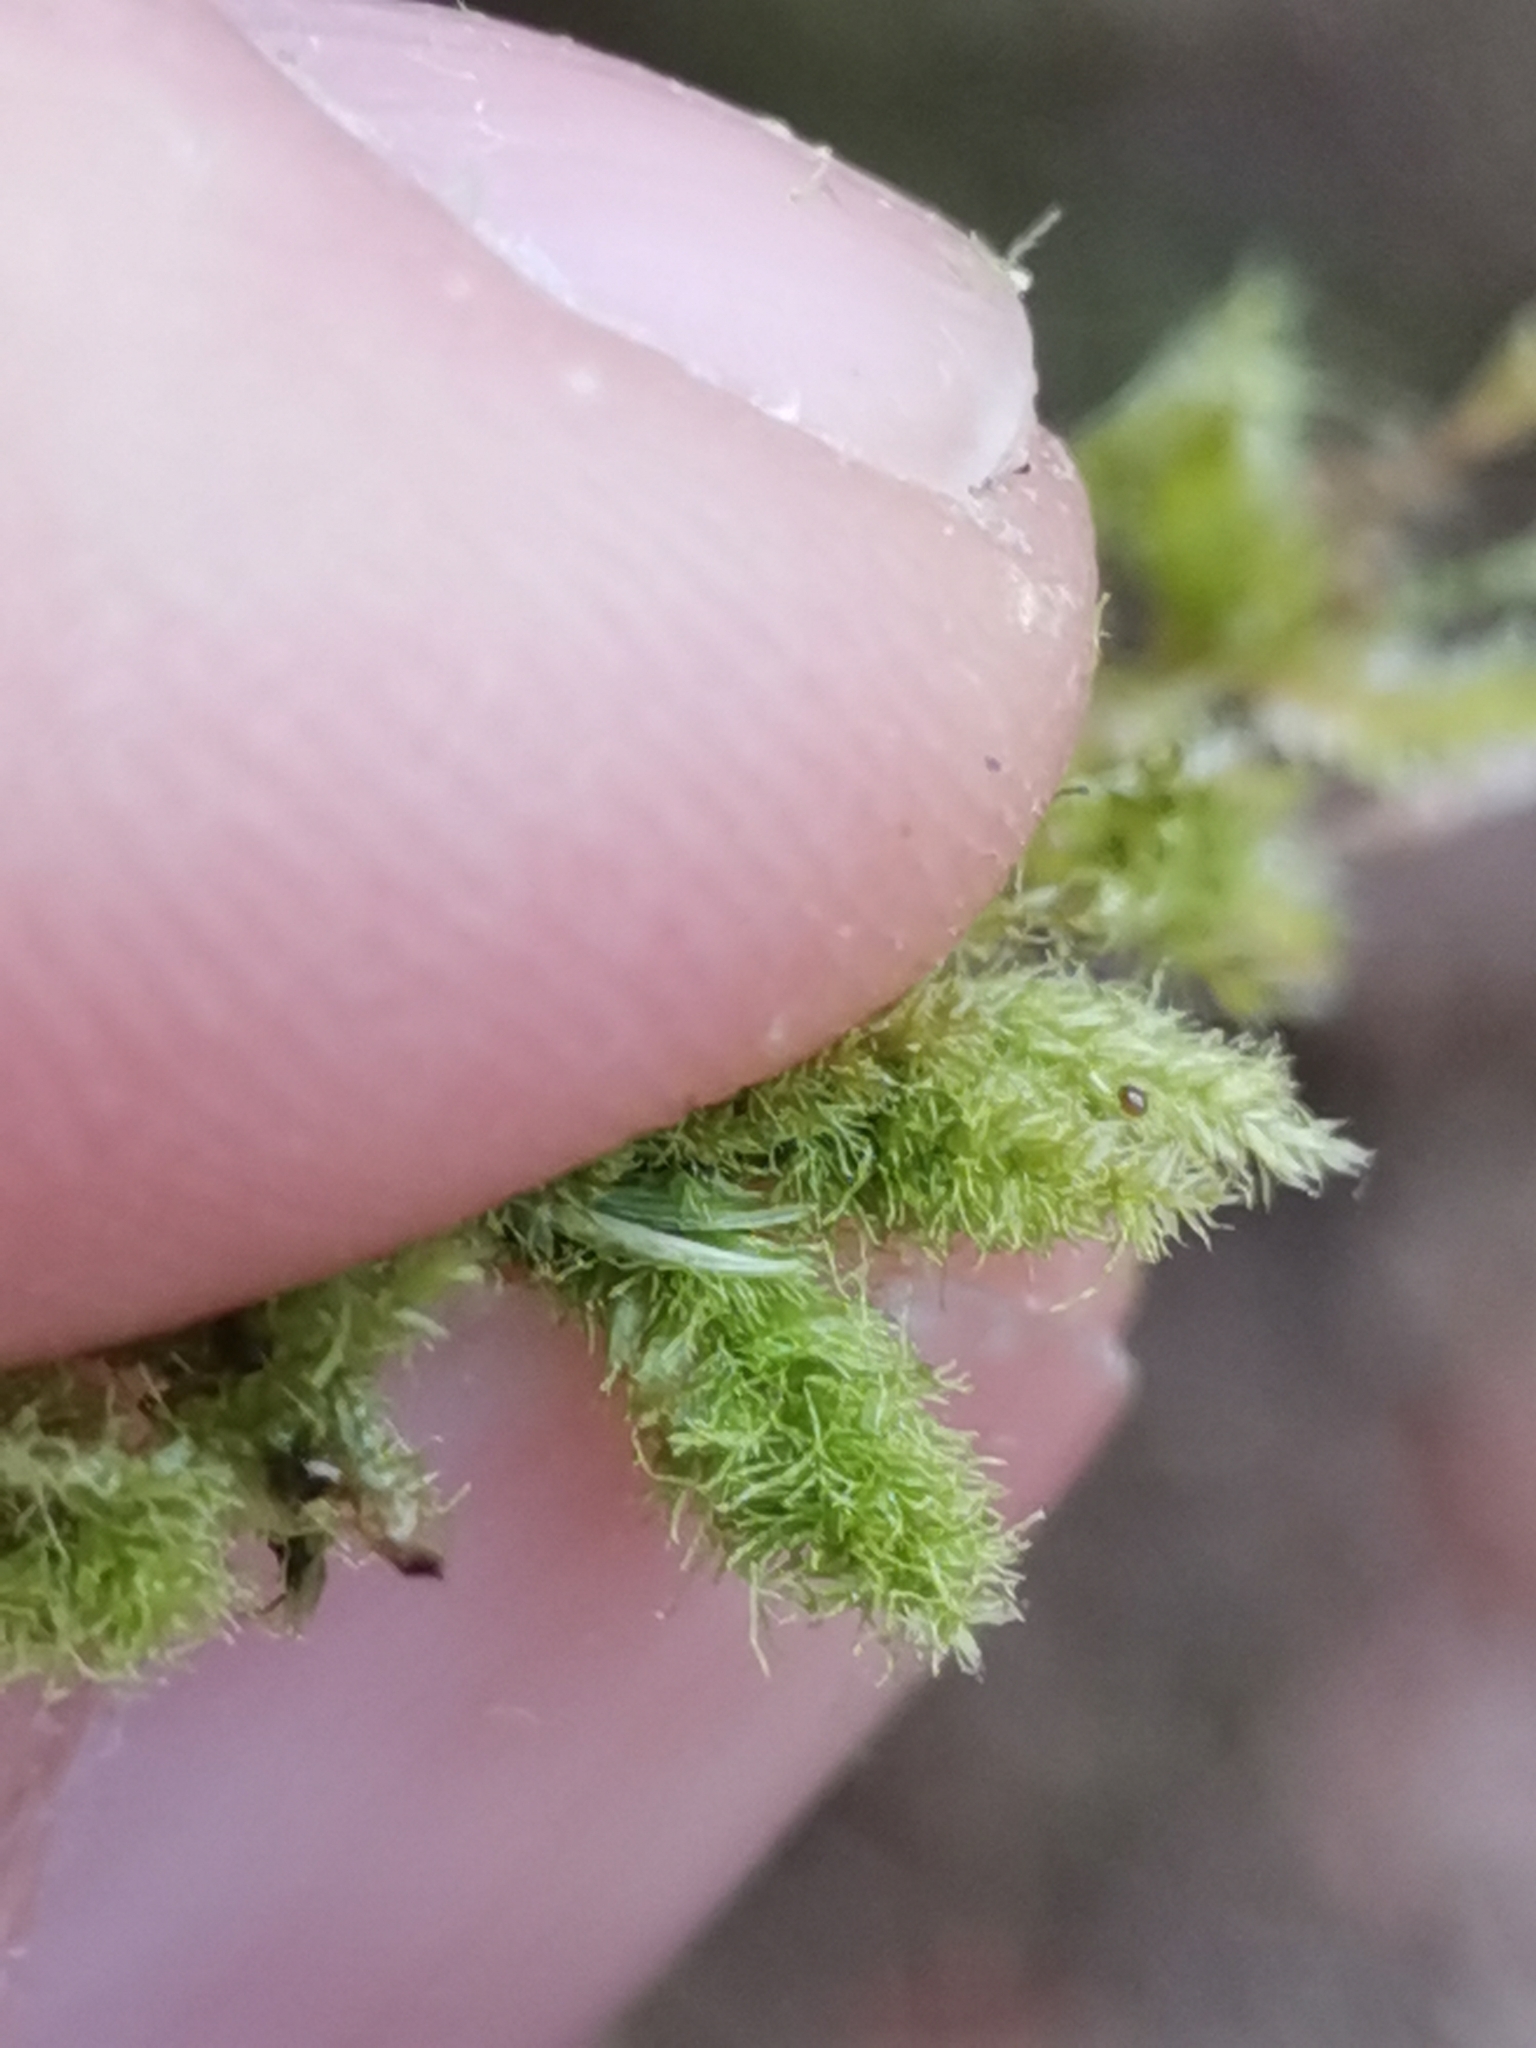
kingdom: Plantae
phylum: Bryophyta
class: Bryopsida
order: Hypnales
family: Plagiotheciaceae
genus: Pseudotaxiphyllum
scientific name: Pseudotaxiphyllum elegans
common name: Elegant silk moss
